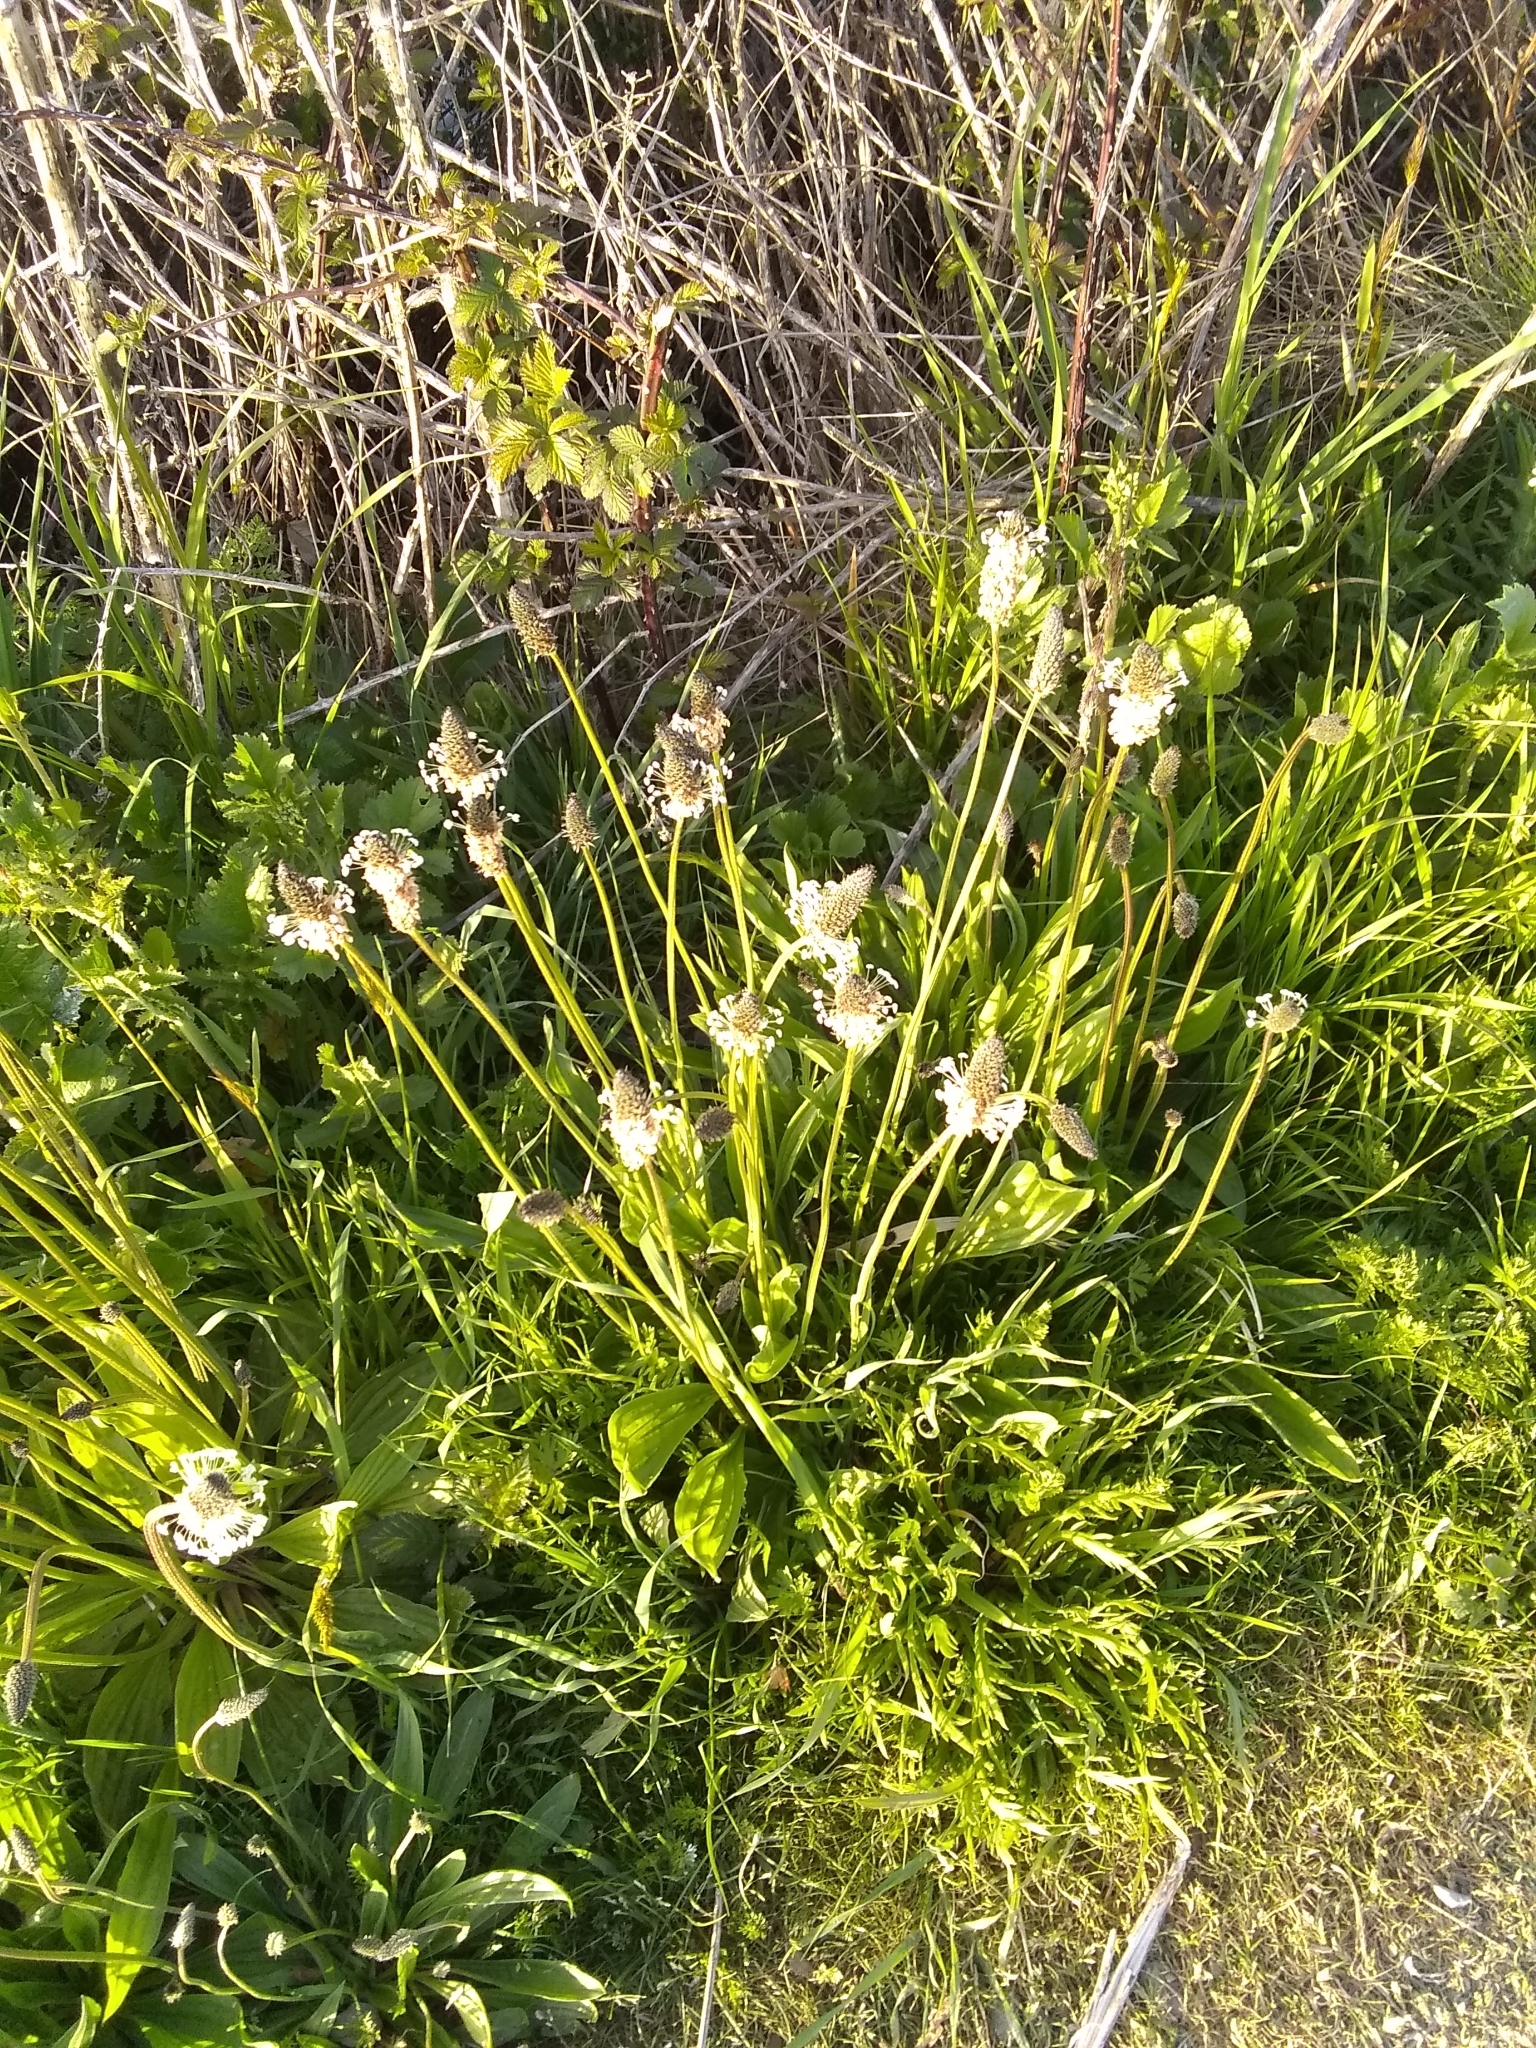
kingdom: Plantae
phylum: Tracheophyta
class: Magnoliopsida
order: Lamiales
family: Plantaginaceae
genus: Plantago
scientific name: Plantago lanceolata
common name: Ribwort plantain
